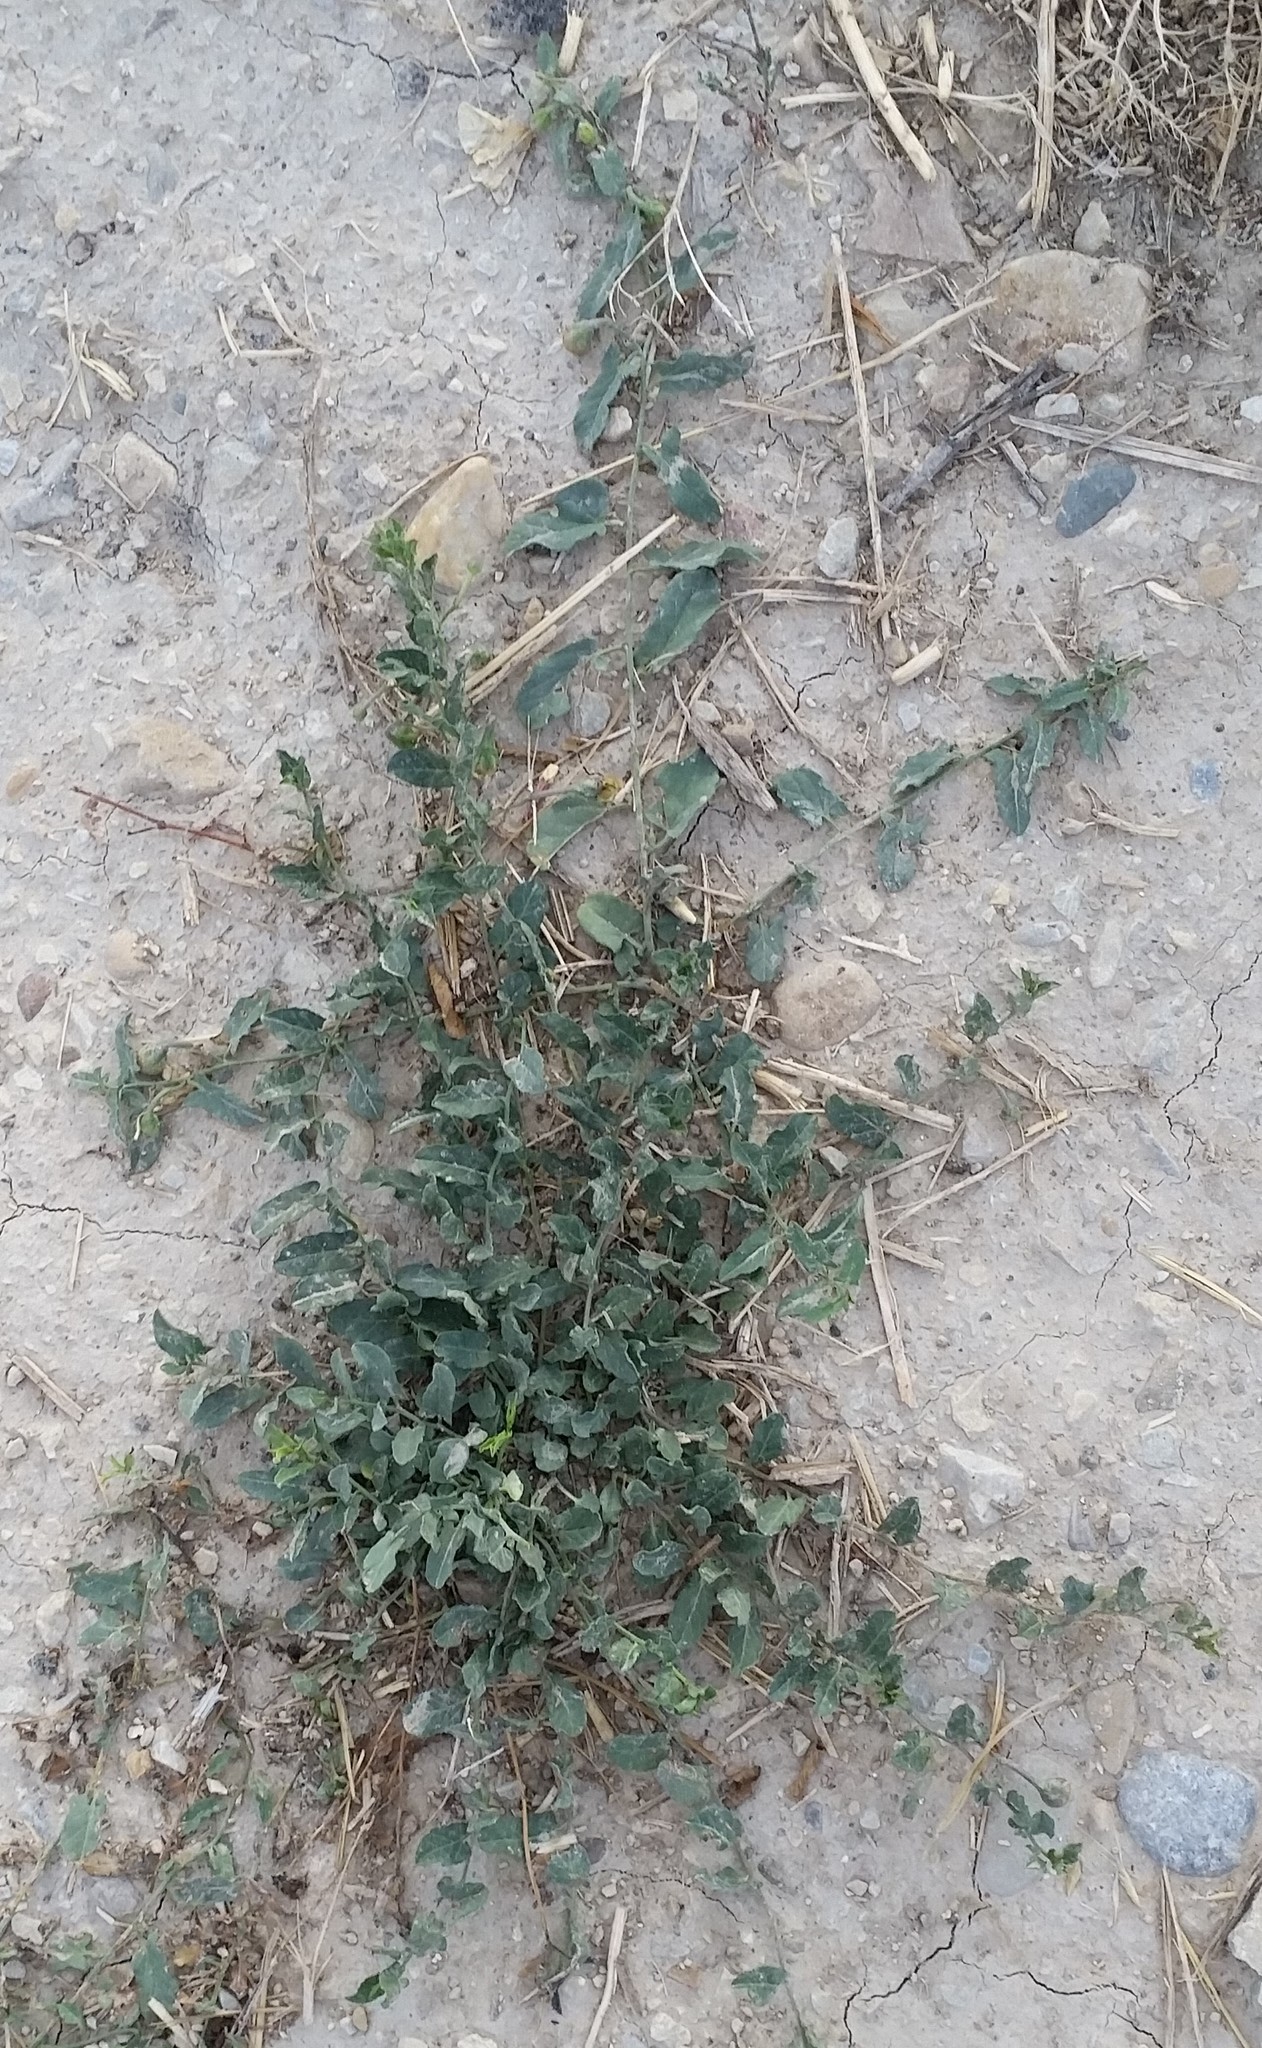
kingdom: Plantae
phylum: Tracheophyta
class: Magnoliopsida
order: Solanales
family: Convolvulaceae
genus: Convolvulus
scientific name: Convolvulus arvensis
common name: Field bindweed
